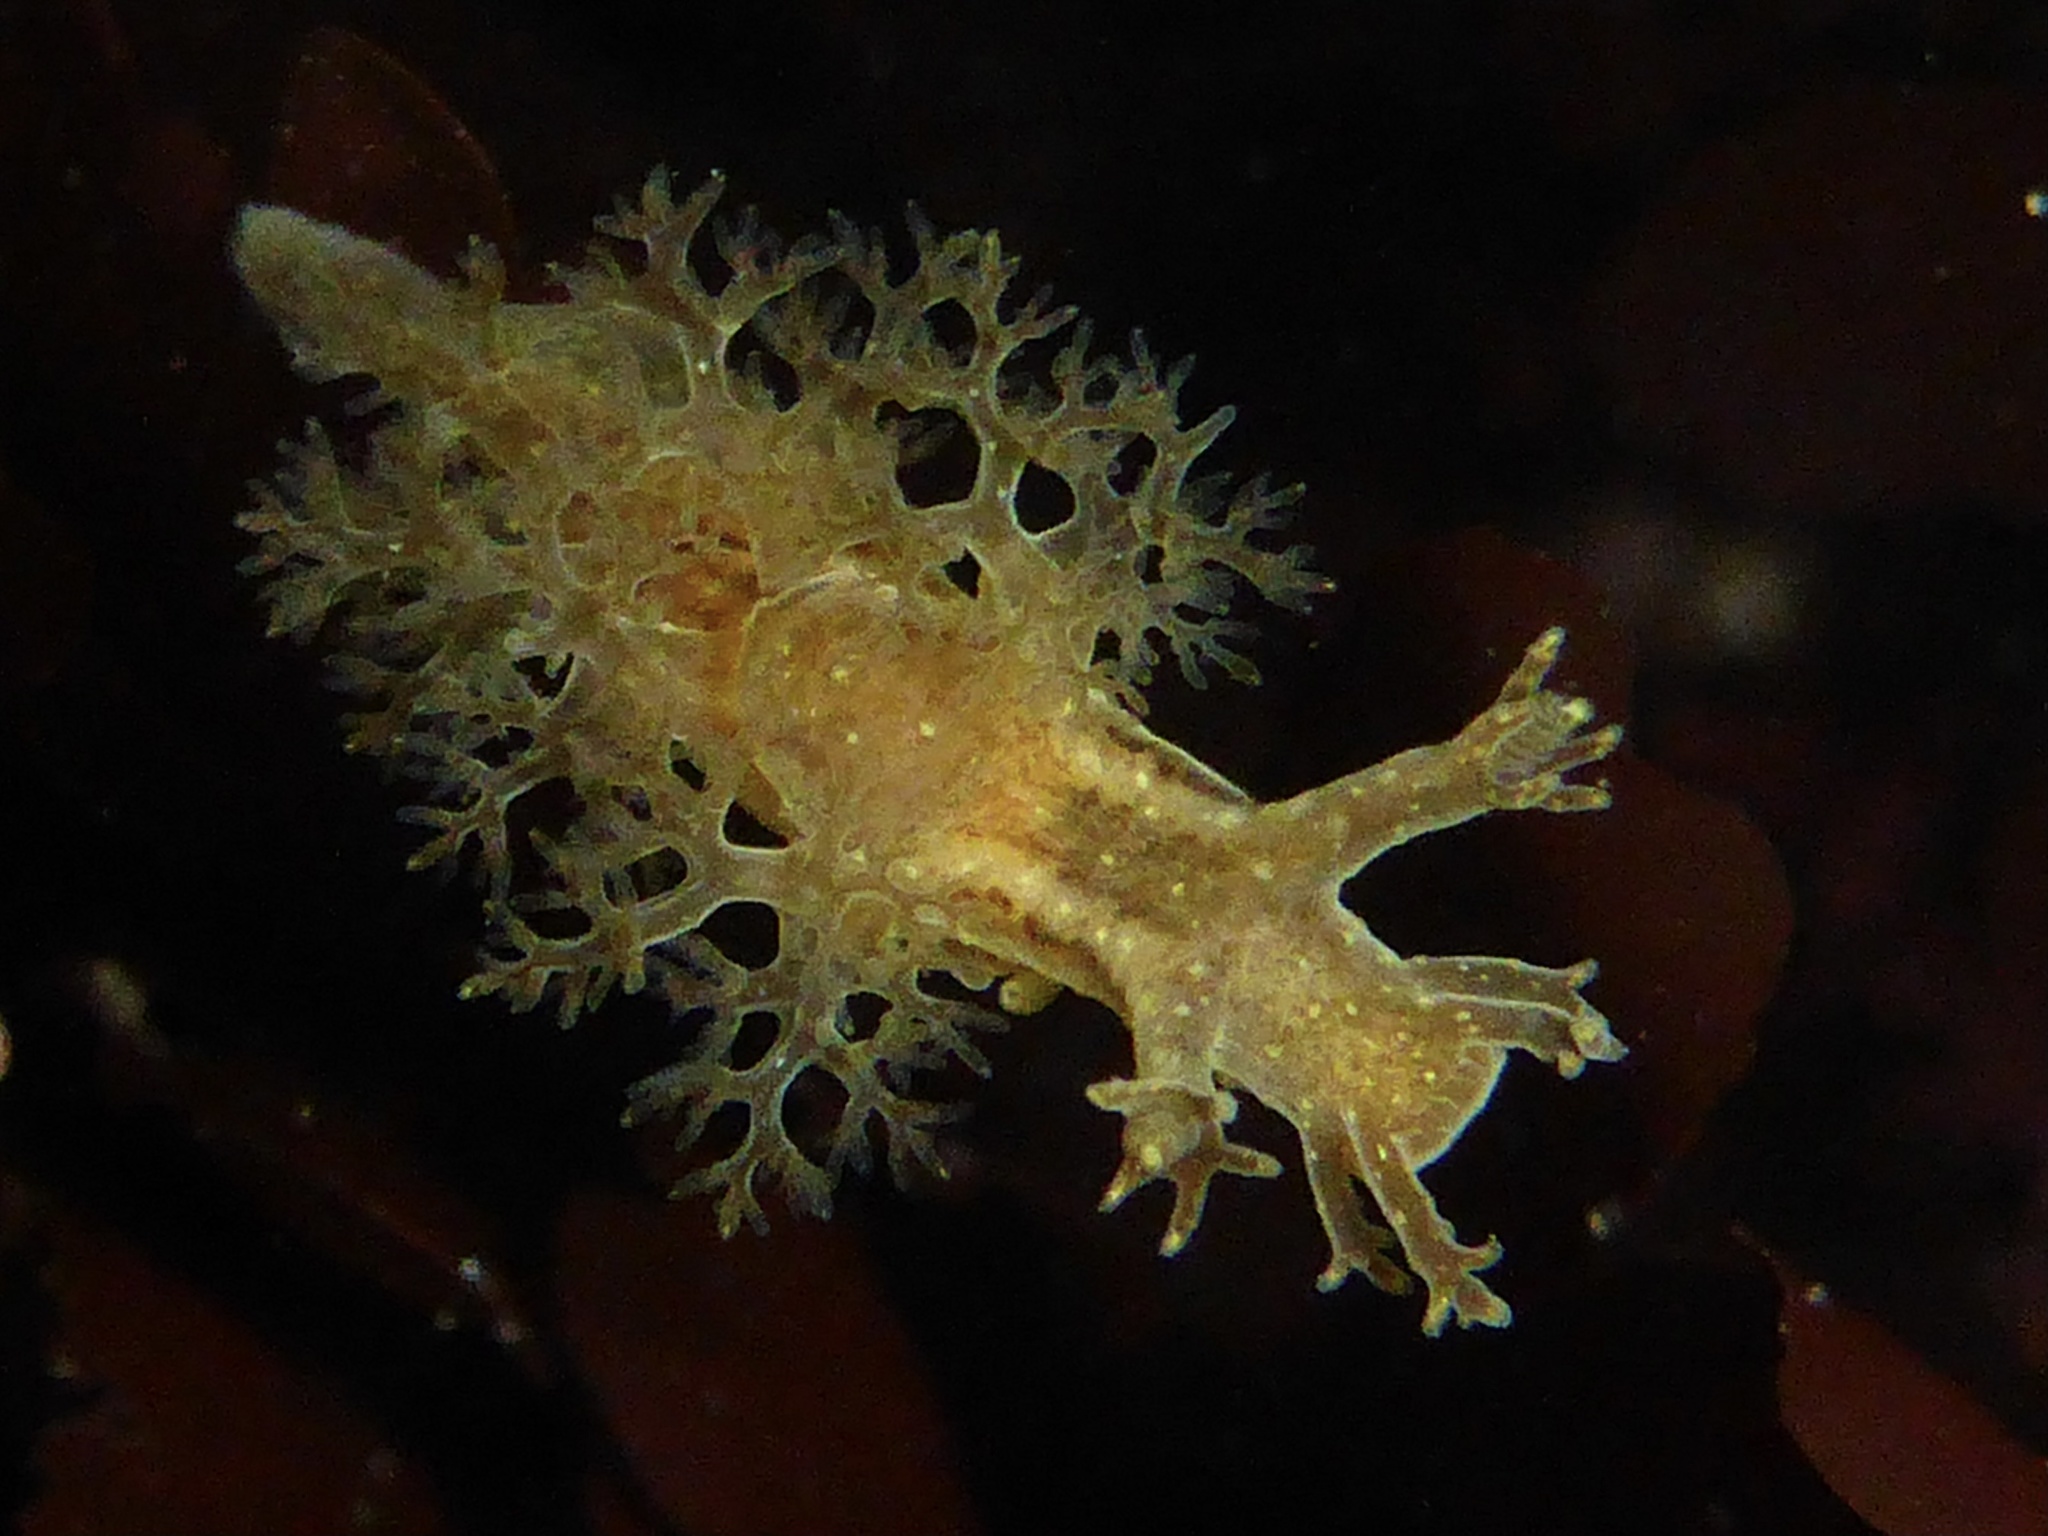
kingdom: Animalia
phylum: Mollusca
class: Gastropoda
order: Nudibranchia
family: Dendronotidae
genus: Dendronotus
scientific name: Dendronotus subramosus
